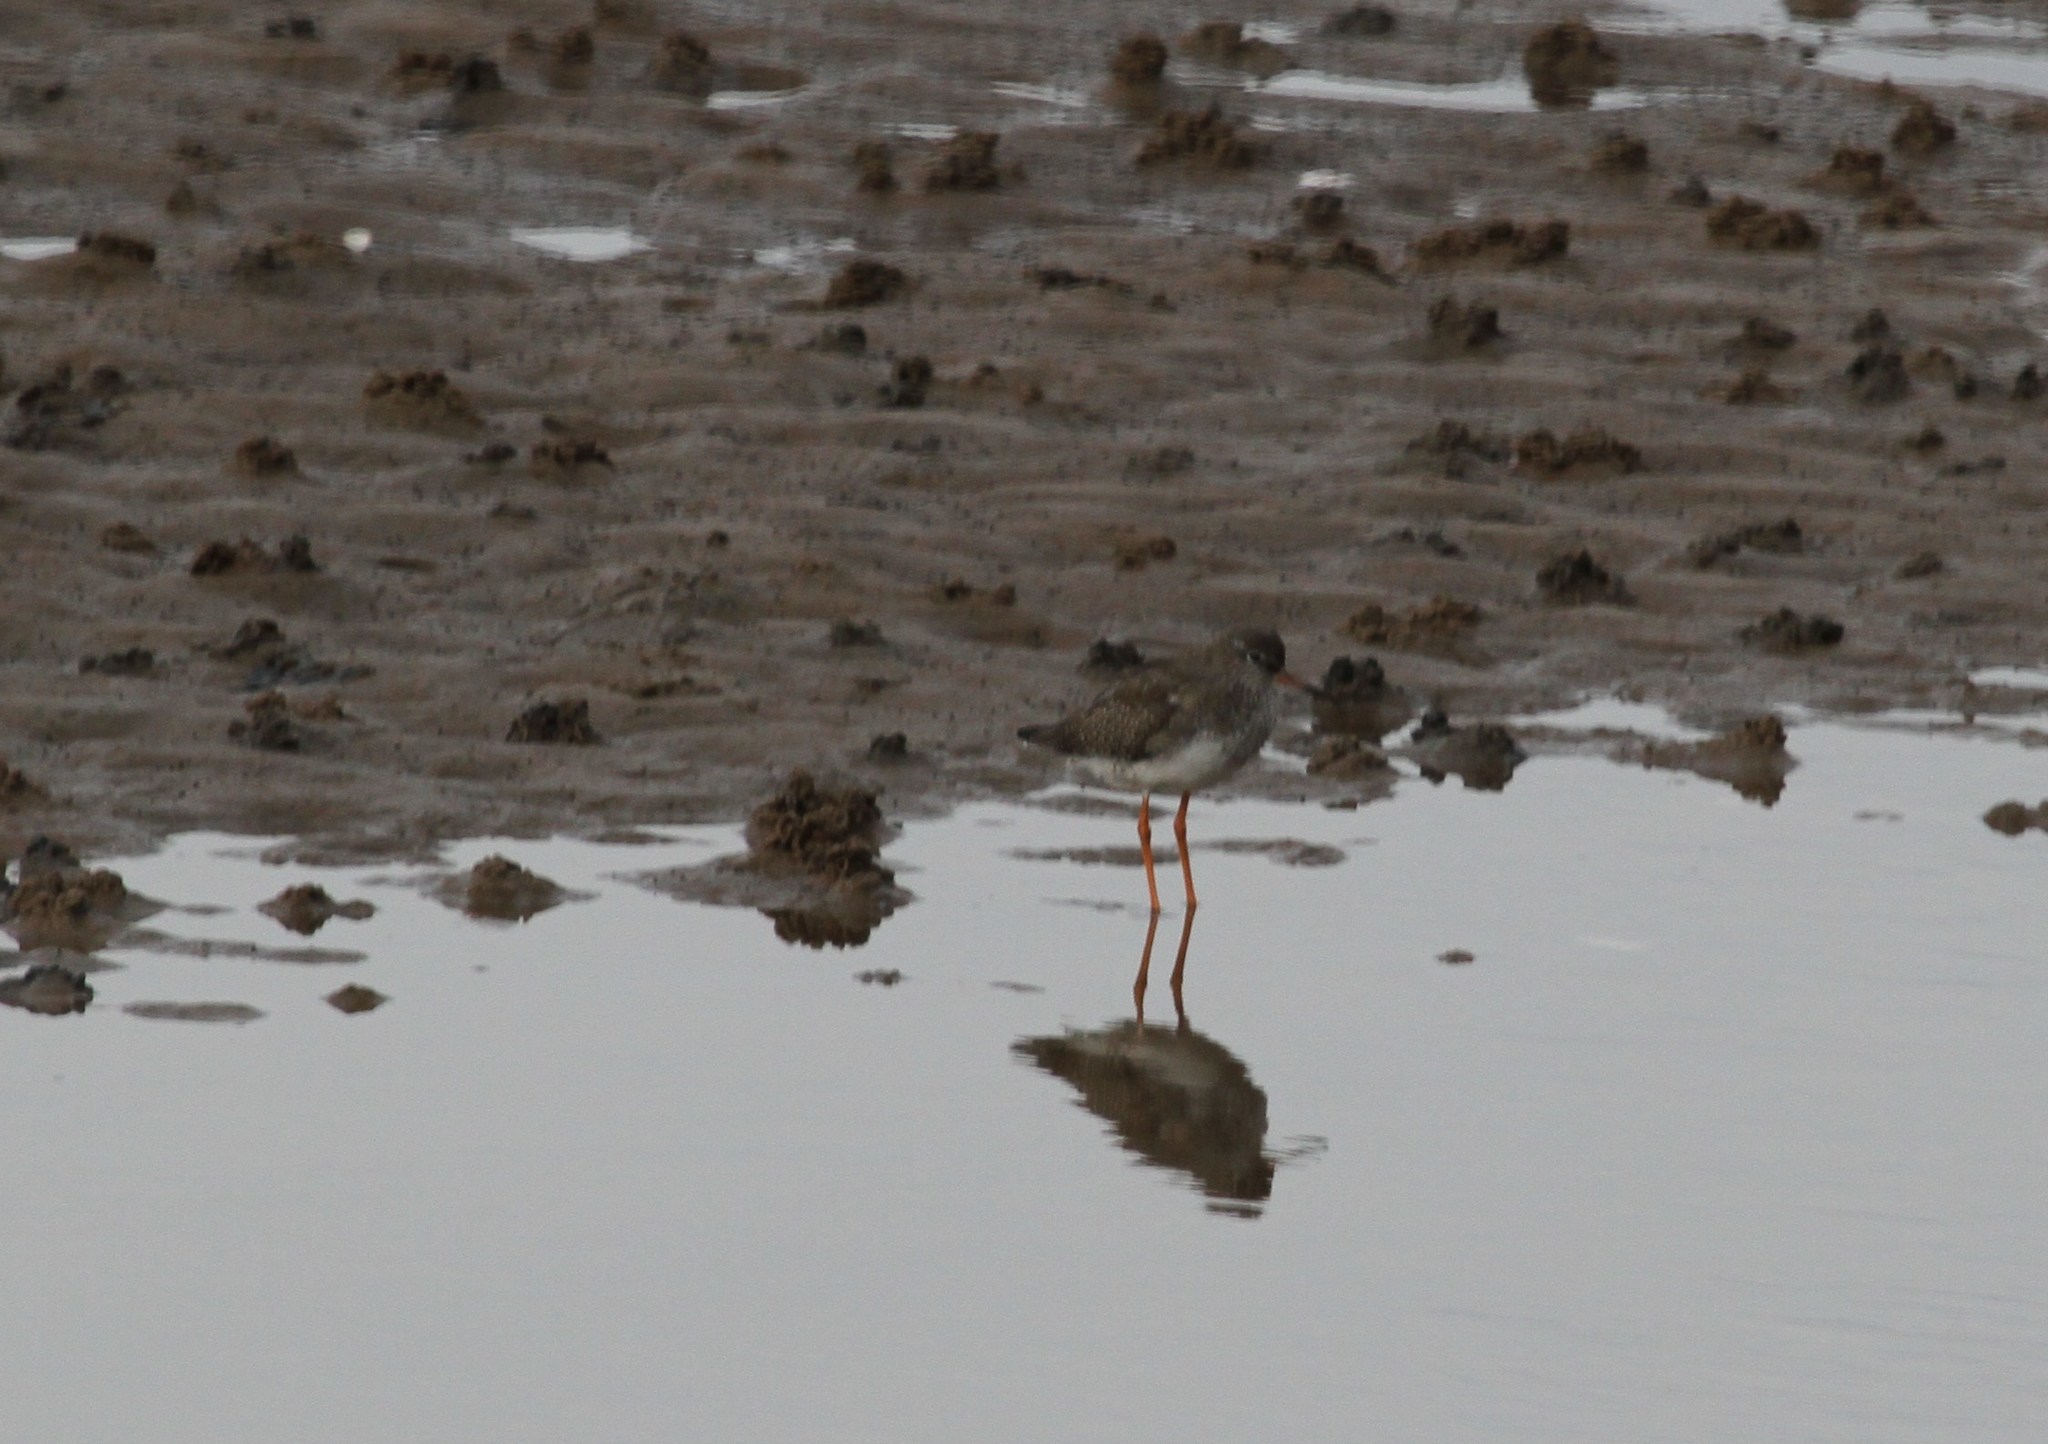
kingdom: Animalia
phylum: Chordata
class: Aves
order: Charadriiformes
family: Scolopacidae
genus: Tringa
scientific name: Tringa totanus
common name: Common redshank
